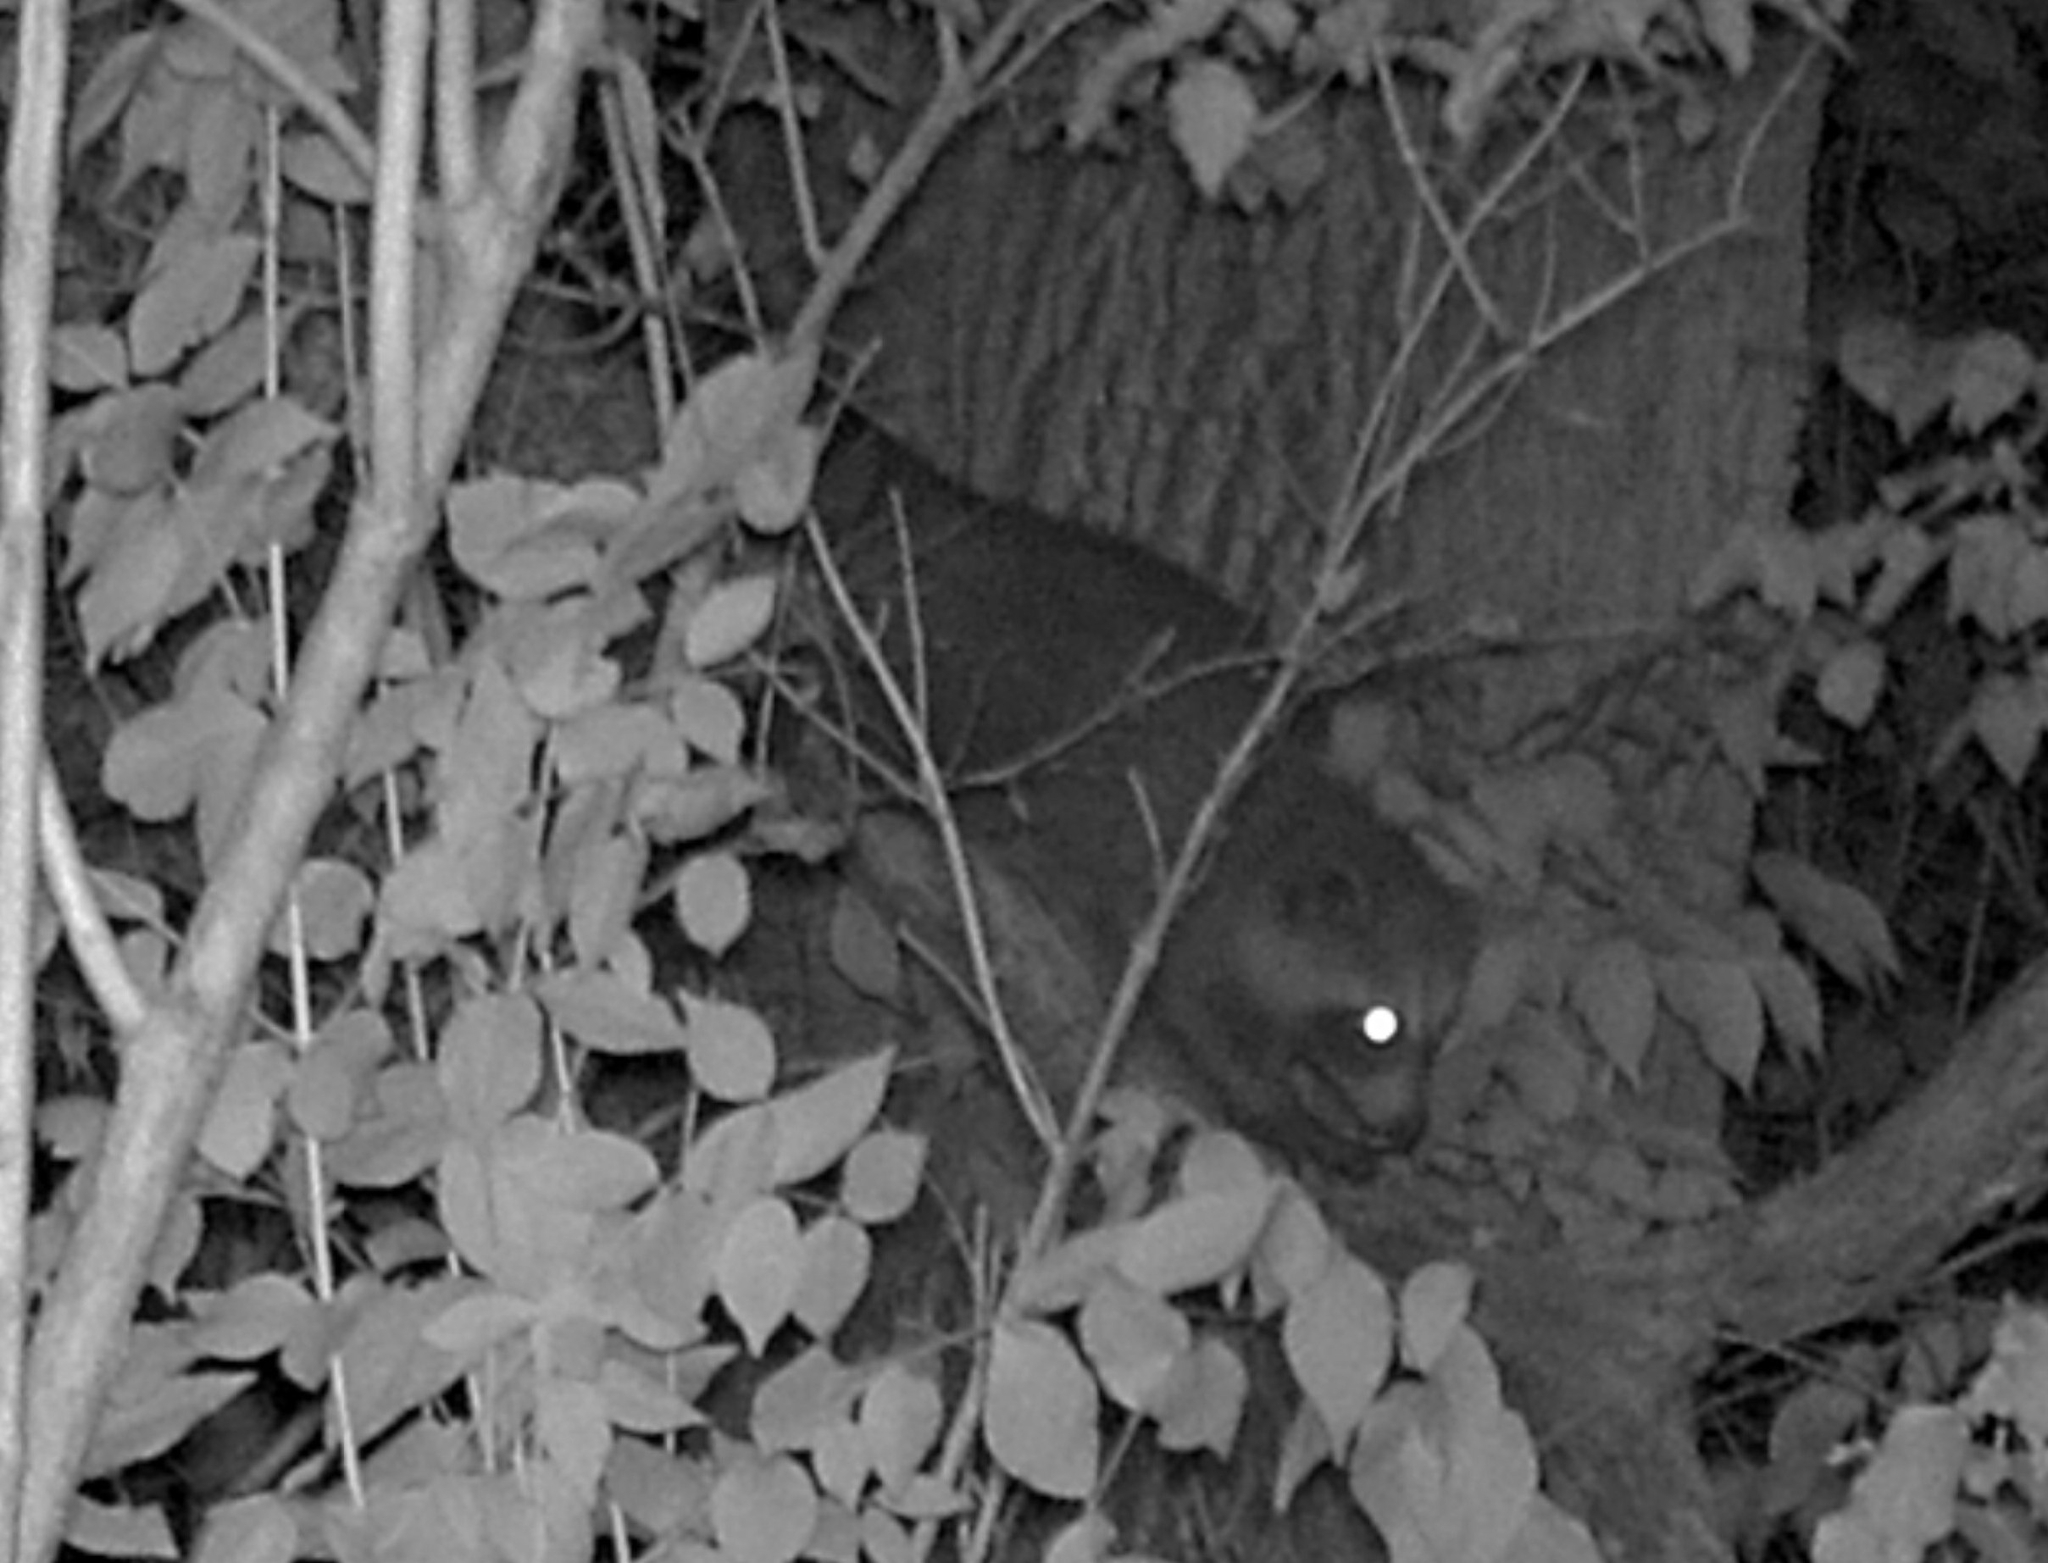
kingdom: Animalia
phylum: Chordata
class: Mammalia
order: Carnivora
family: Procyonidae
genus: Procyon
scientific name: Procyon lotor
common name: Raccoon
